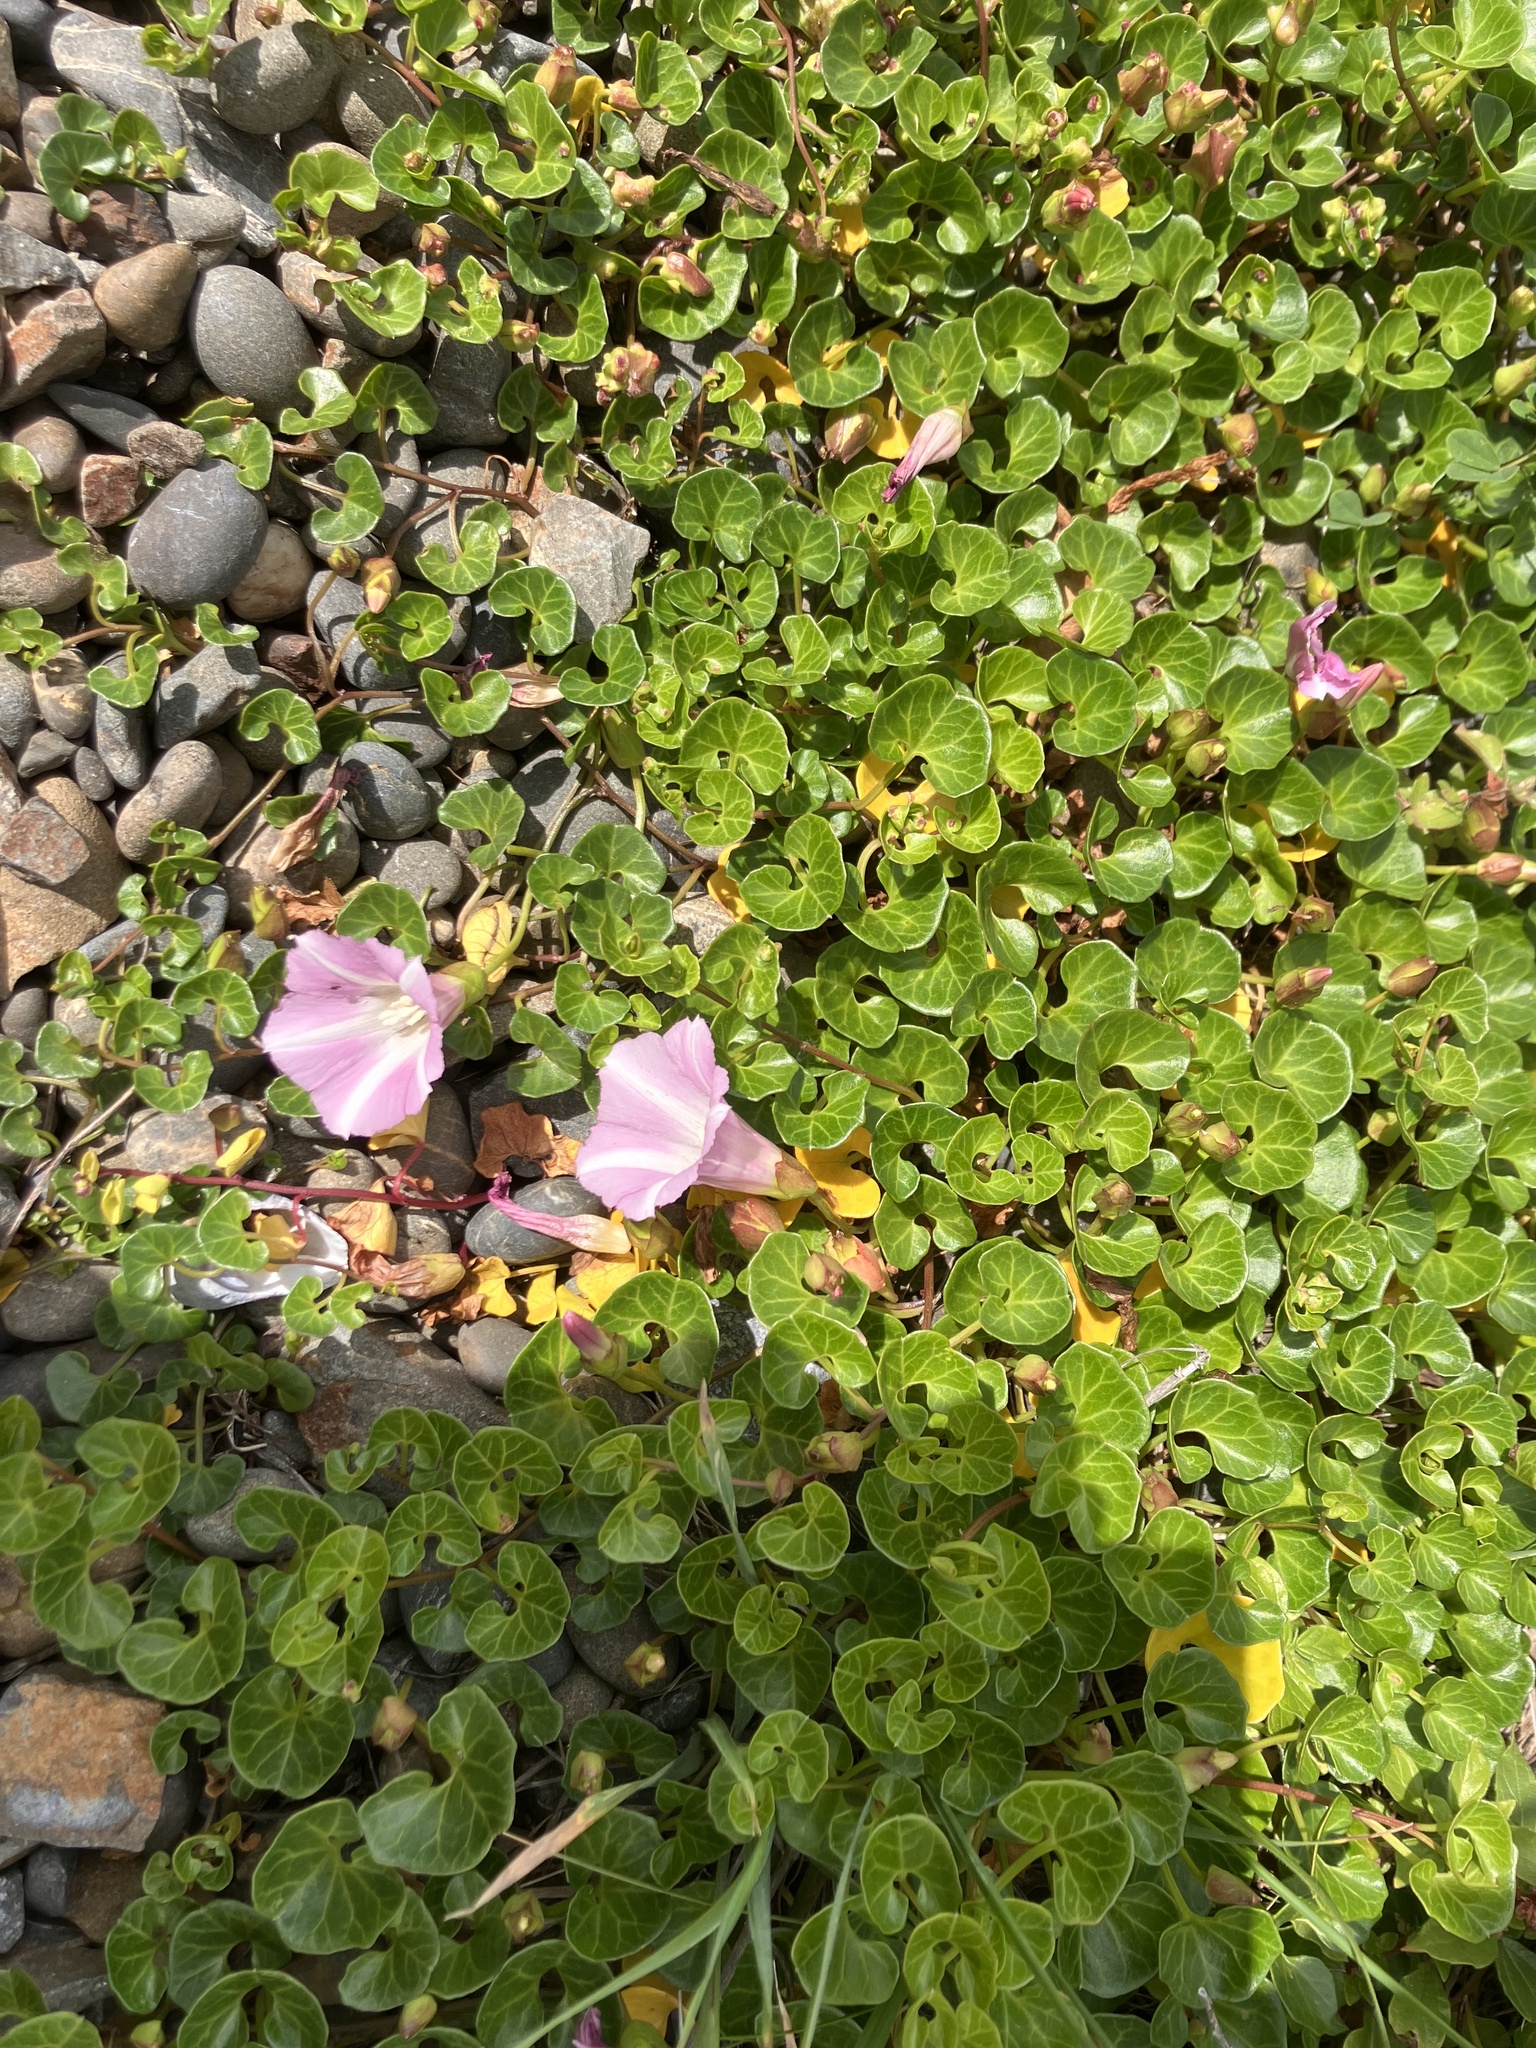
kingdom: Plantae
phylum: Tracheophyta
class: Magnoliopsida
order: Solanales
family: Convolvulaceae
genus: Calystegia
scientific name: Calystegia soldanella
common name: Sea bindweed
